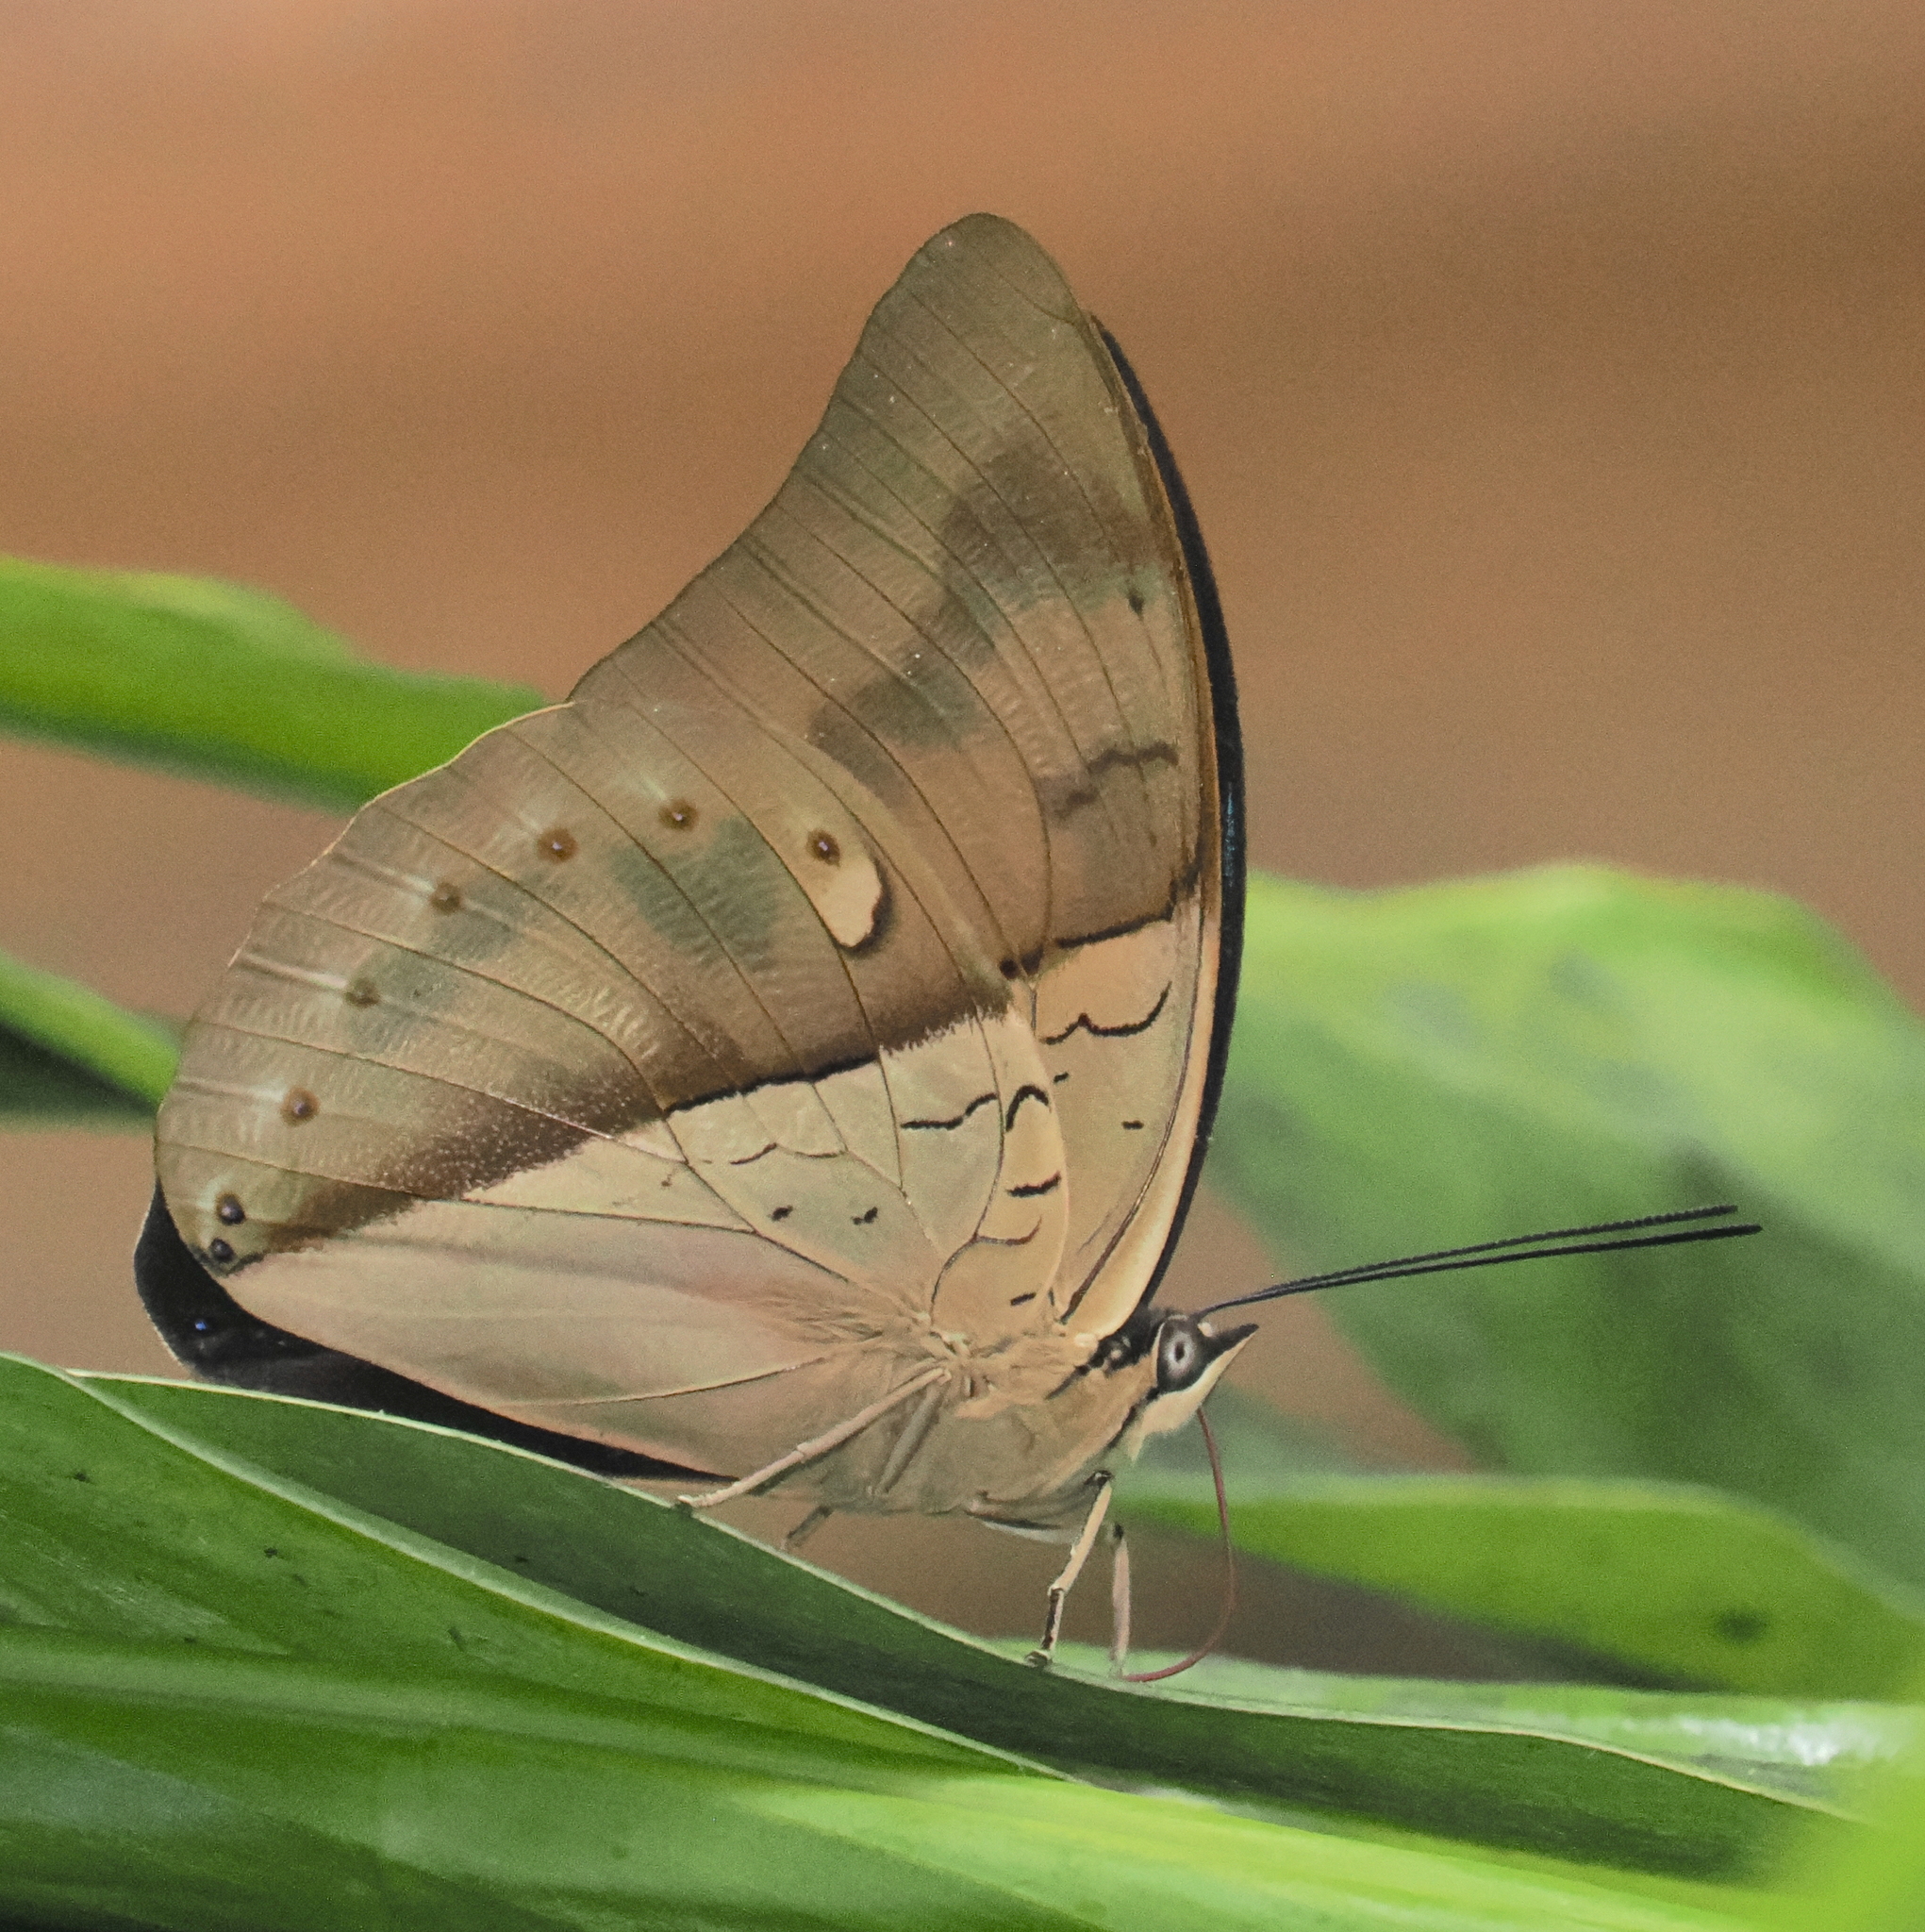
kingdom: Animalia
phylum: Arthropoda
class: Insecta
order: Lepidoptera
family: Nymphalidae
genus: Prepona
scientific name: Prepona meander
